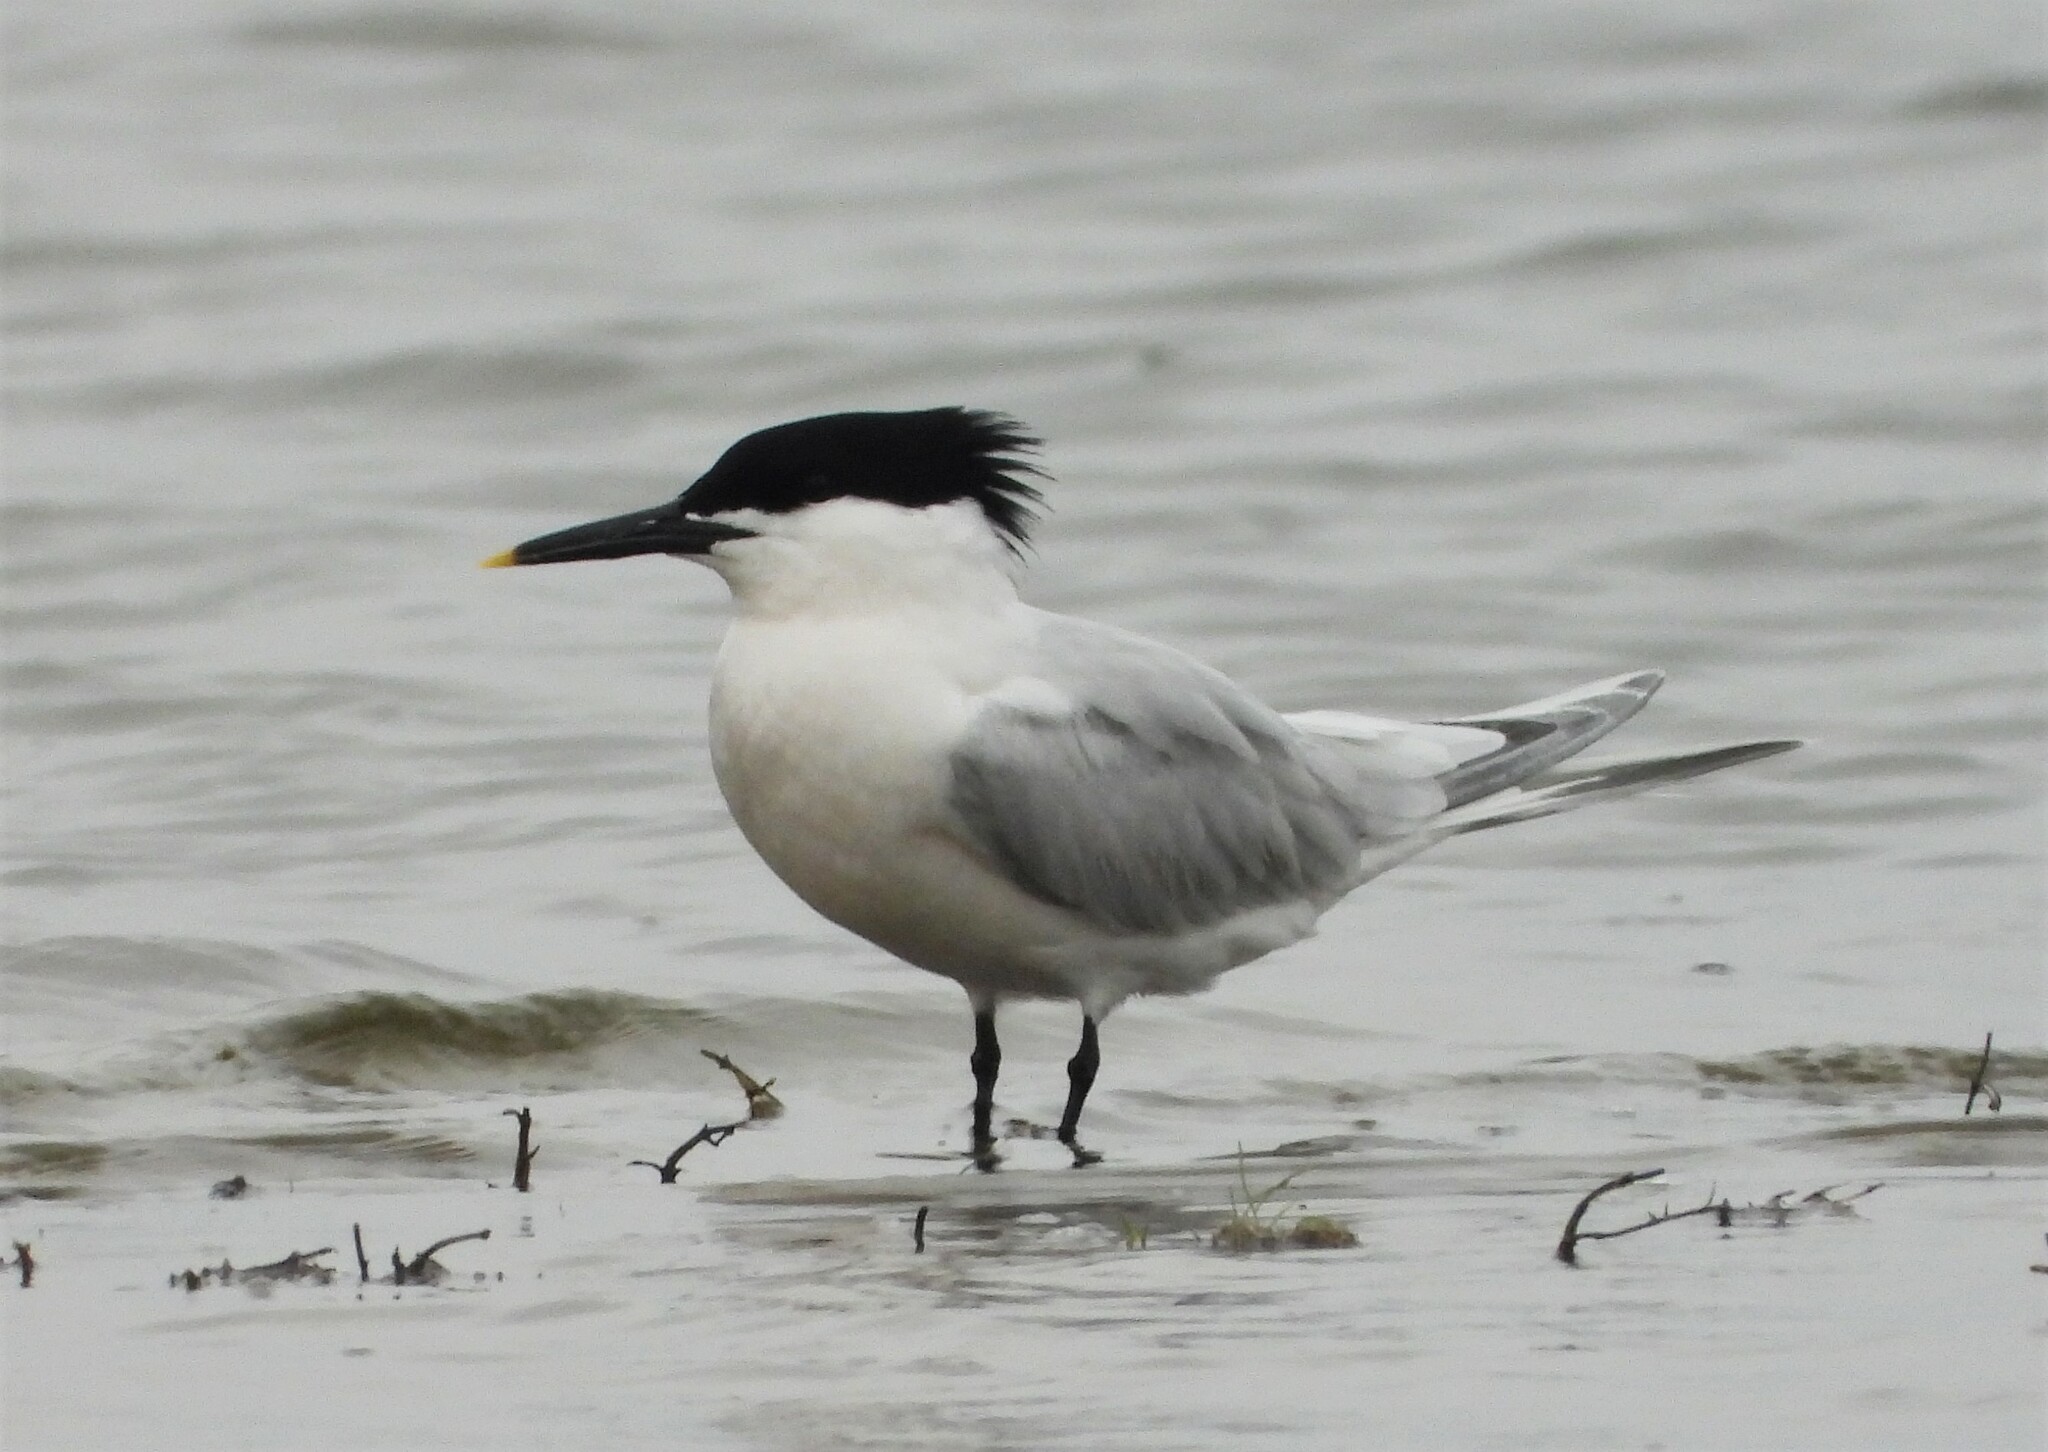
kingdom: Animalia
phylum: Chordata
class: Aves
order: Charadriiformes
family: Laridae
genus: Thalasseus
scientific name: Thalasseus sandvicensis
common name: Sandwich tern
